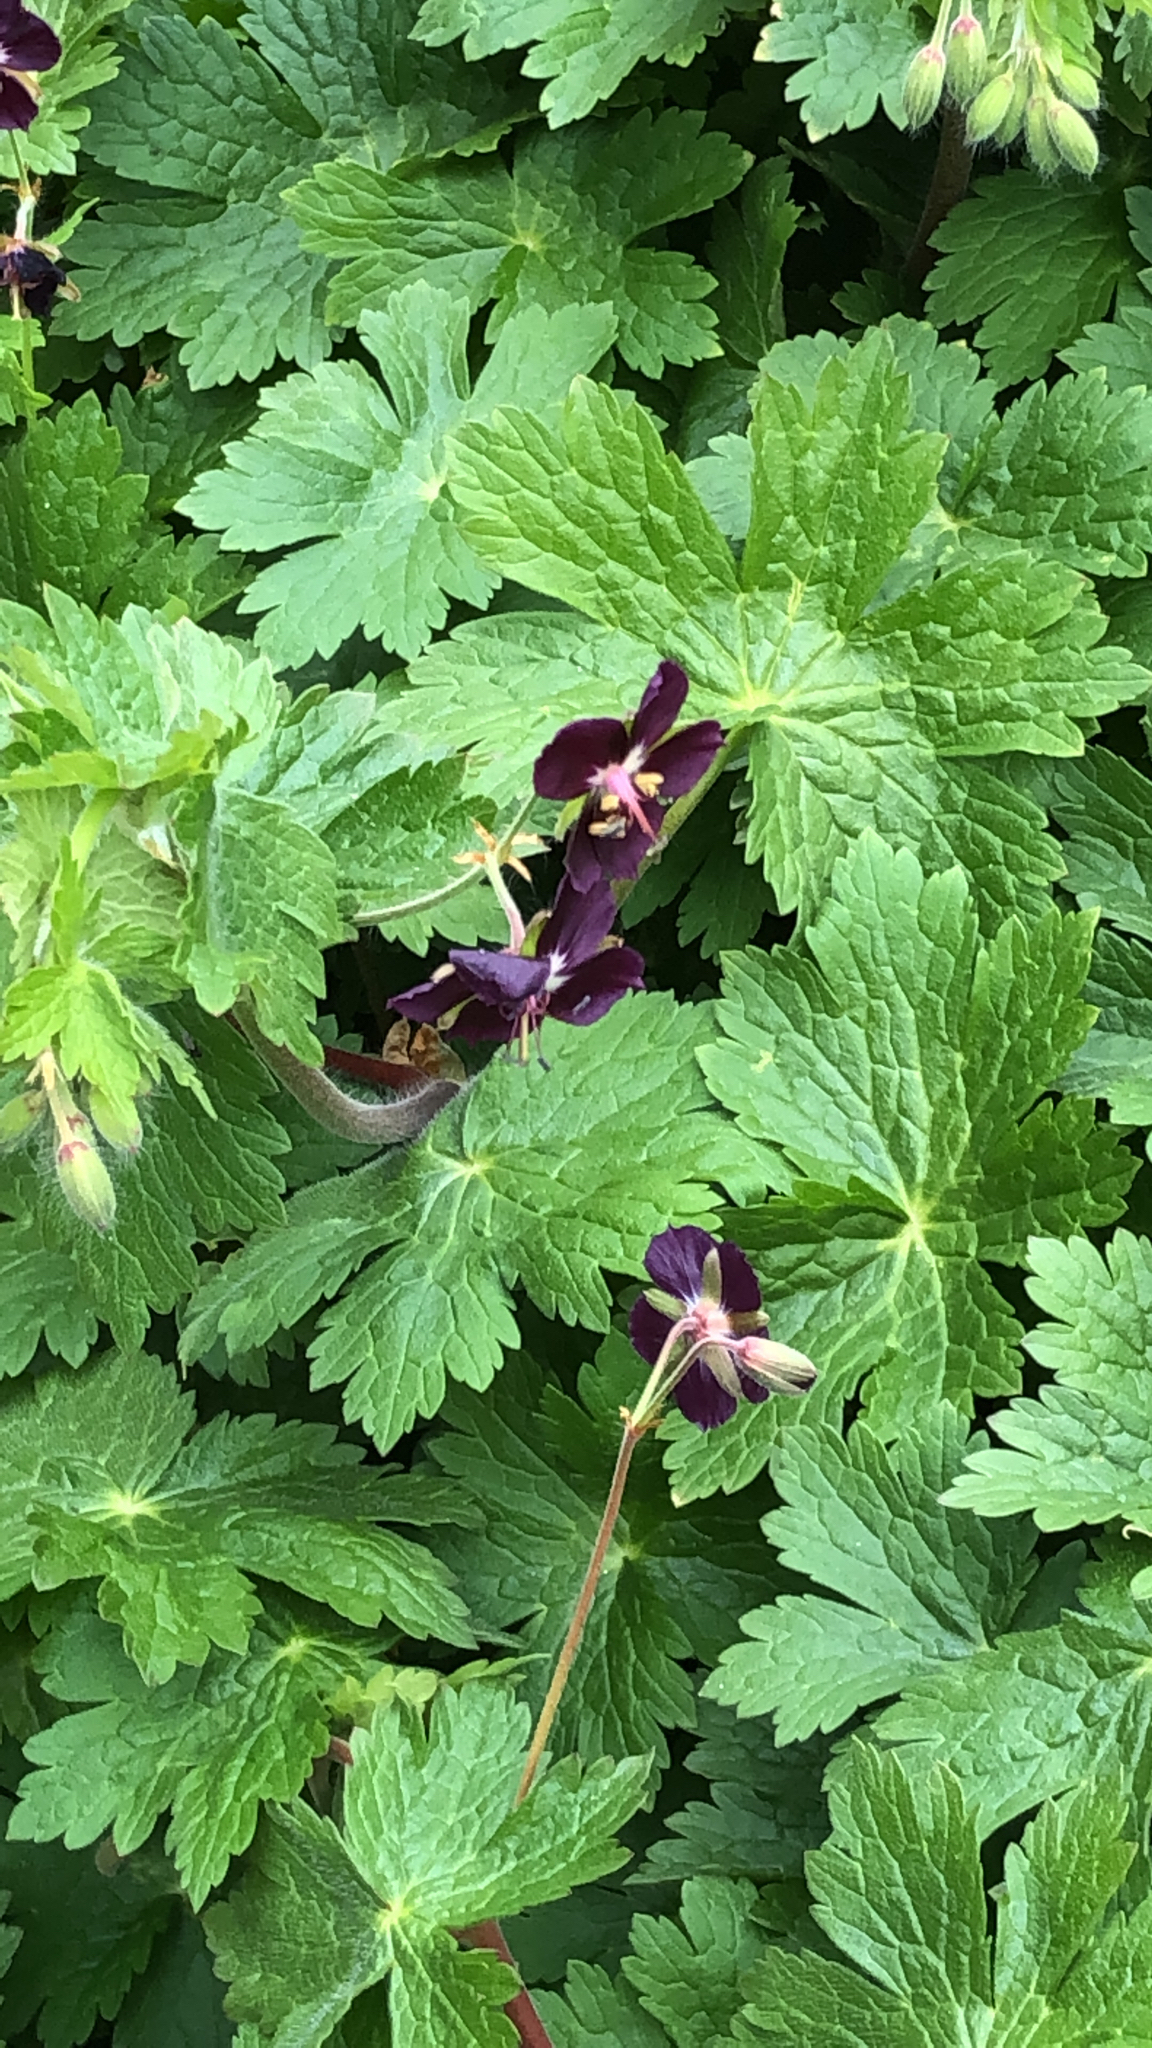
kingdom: Plantae
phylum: Tracheophyta
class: Magnoliopsida
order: Geraniales
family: Geraniaceae
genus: Geranium
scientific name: Geranium phaeum
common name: Dusky crane's-bill
